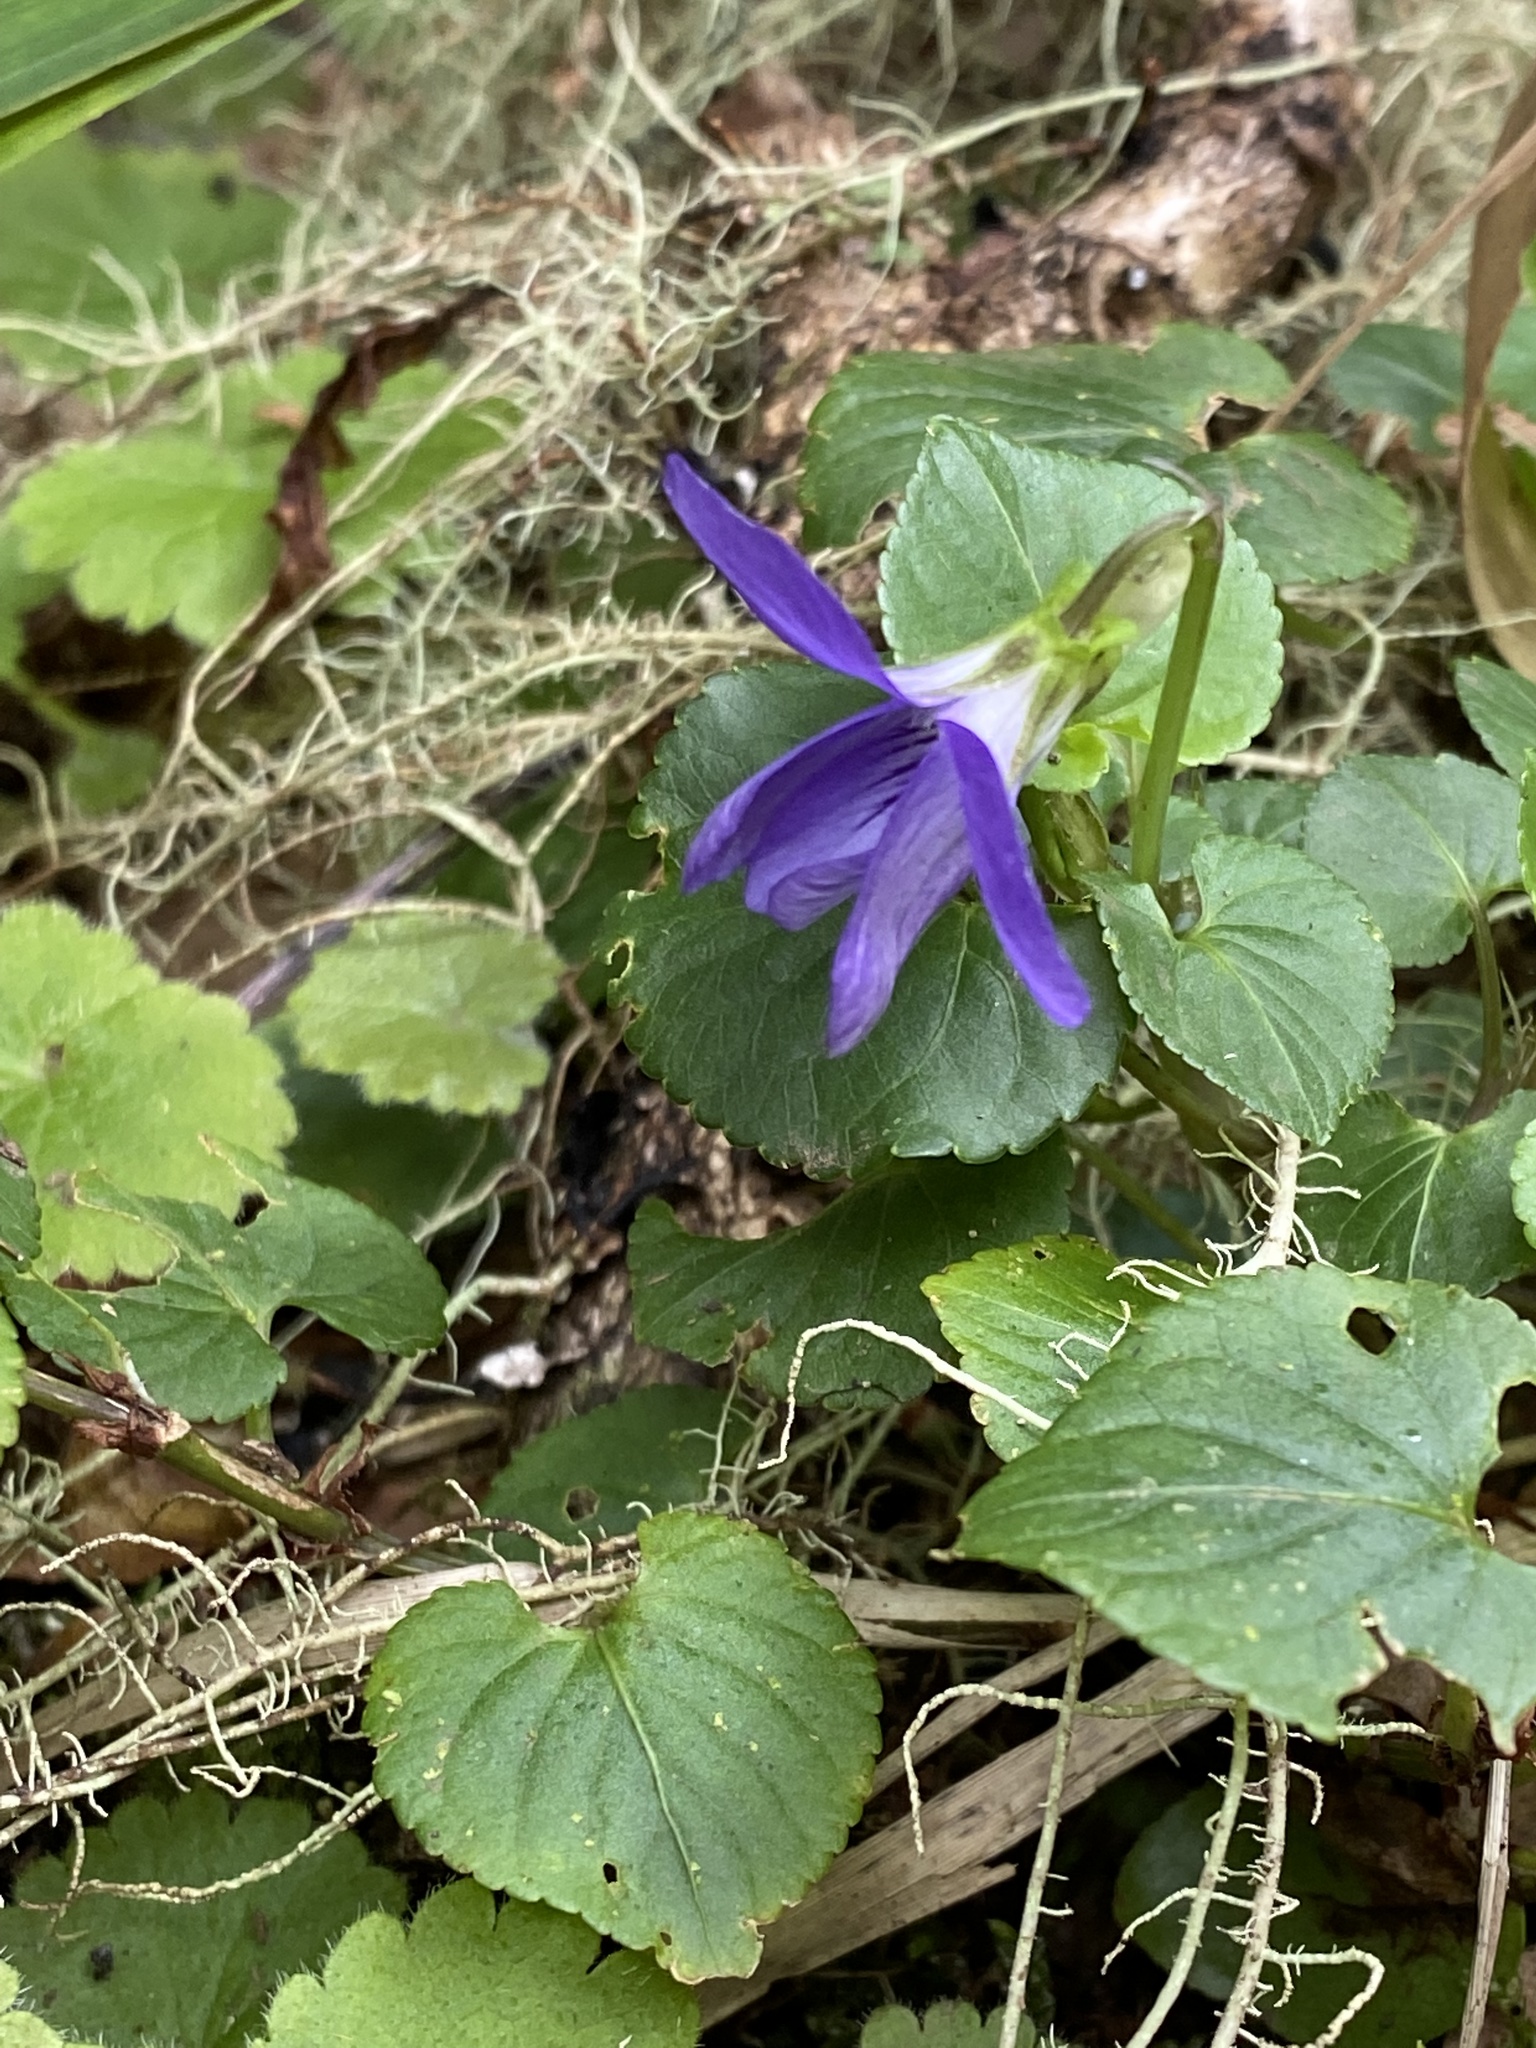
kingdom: Plantae
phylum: Tracheophyta
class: Magnoliopsida
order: Malpighiales
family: Violaceae
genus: Viola
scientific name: Viola riviniana
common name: Common dog-violet
